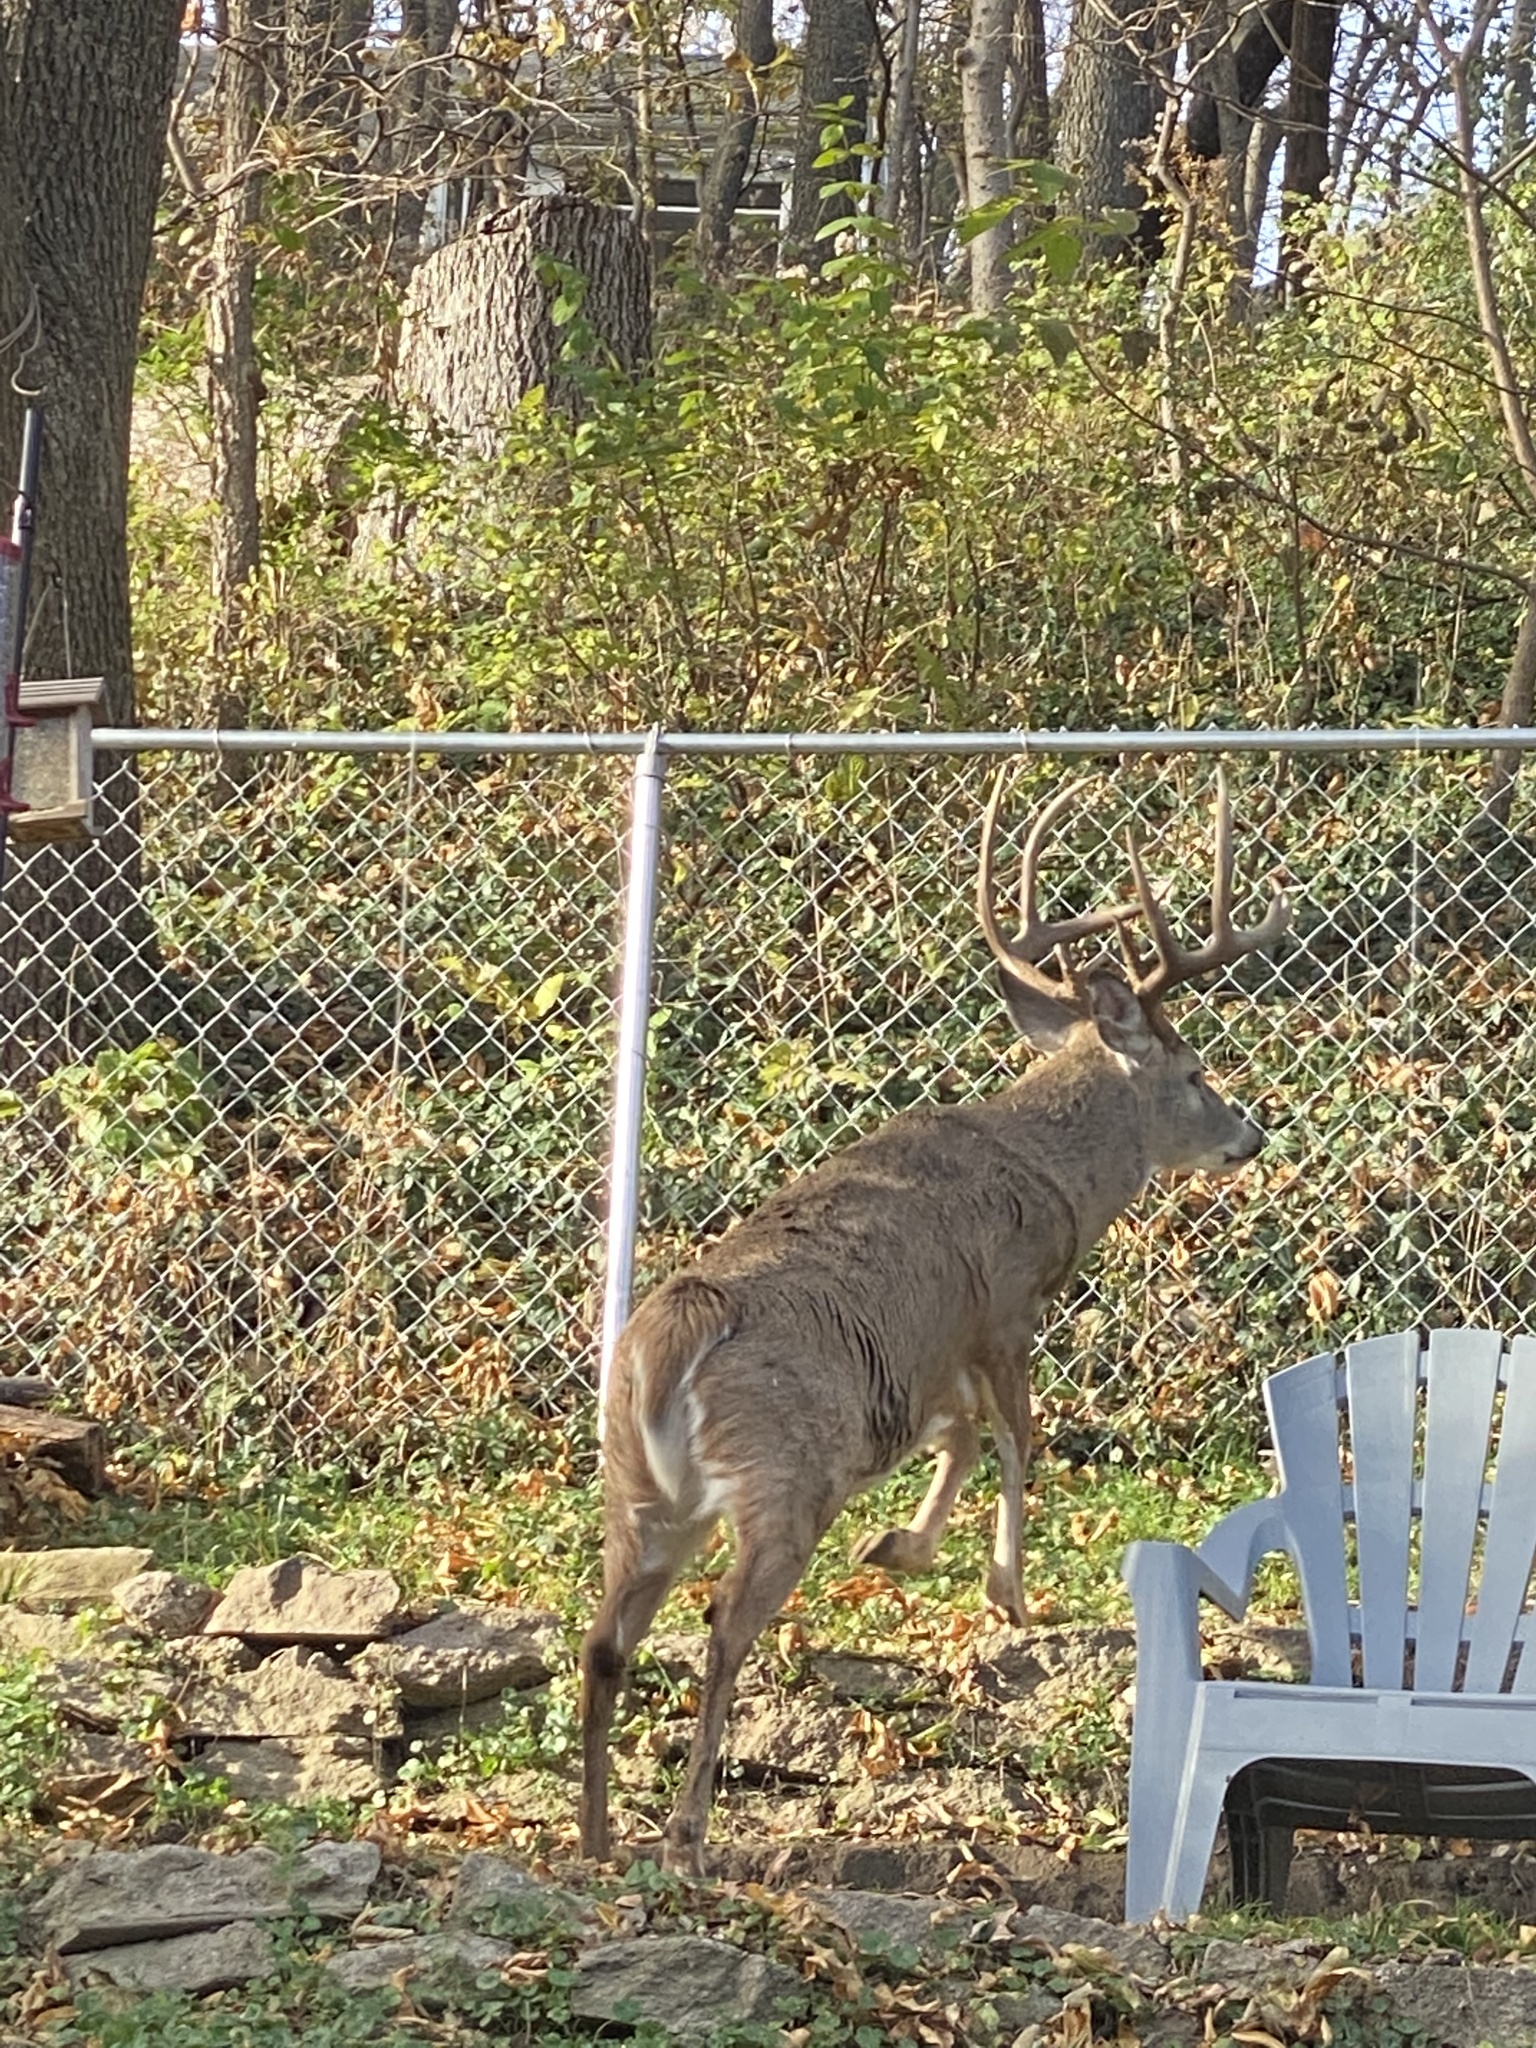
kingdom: Animalia
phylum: Chordata
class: Mammalia
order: Artiodactyla
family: Cervidae
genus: Odocoileus
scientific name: Odocoileus virginianus
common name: White-tailed deer
